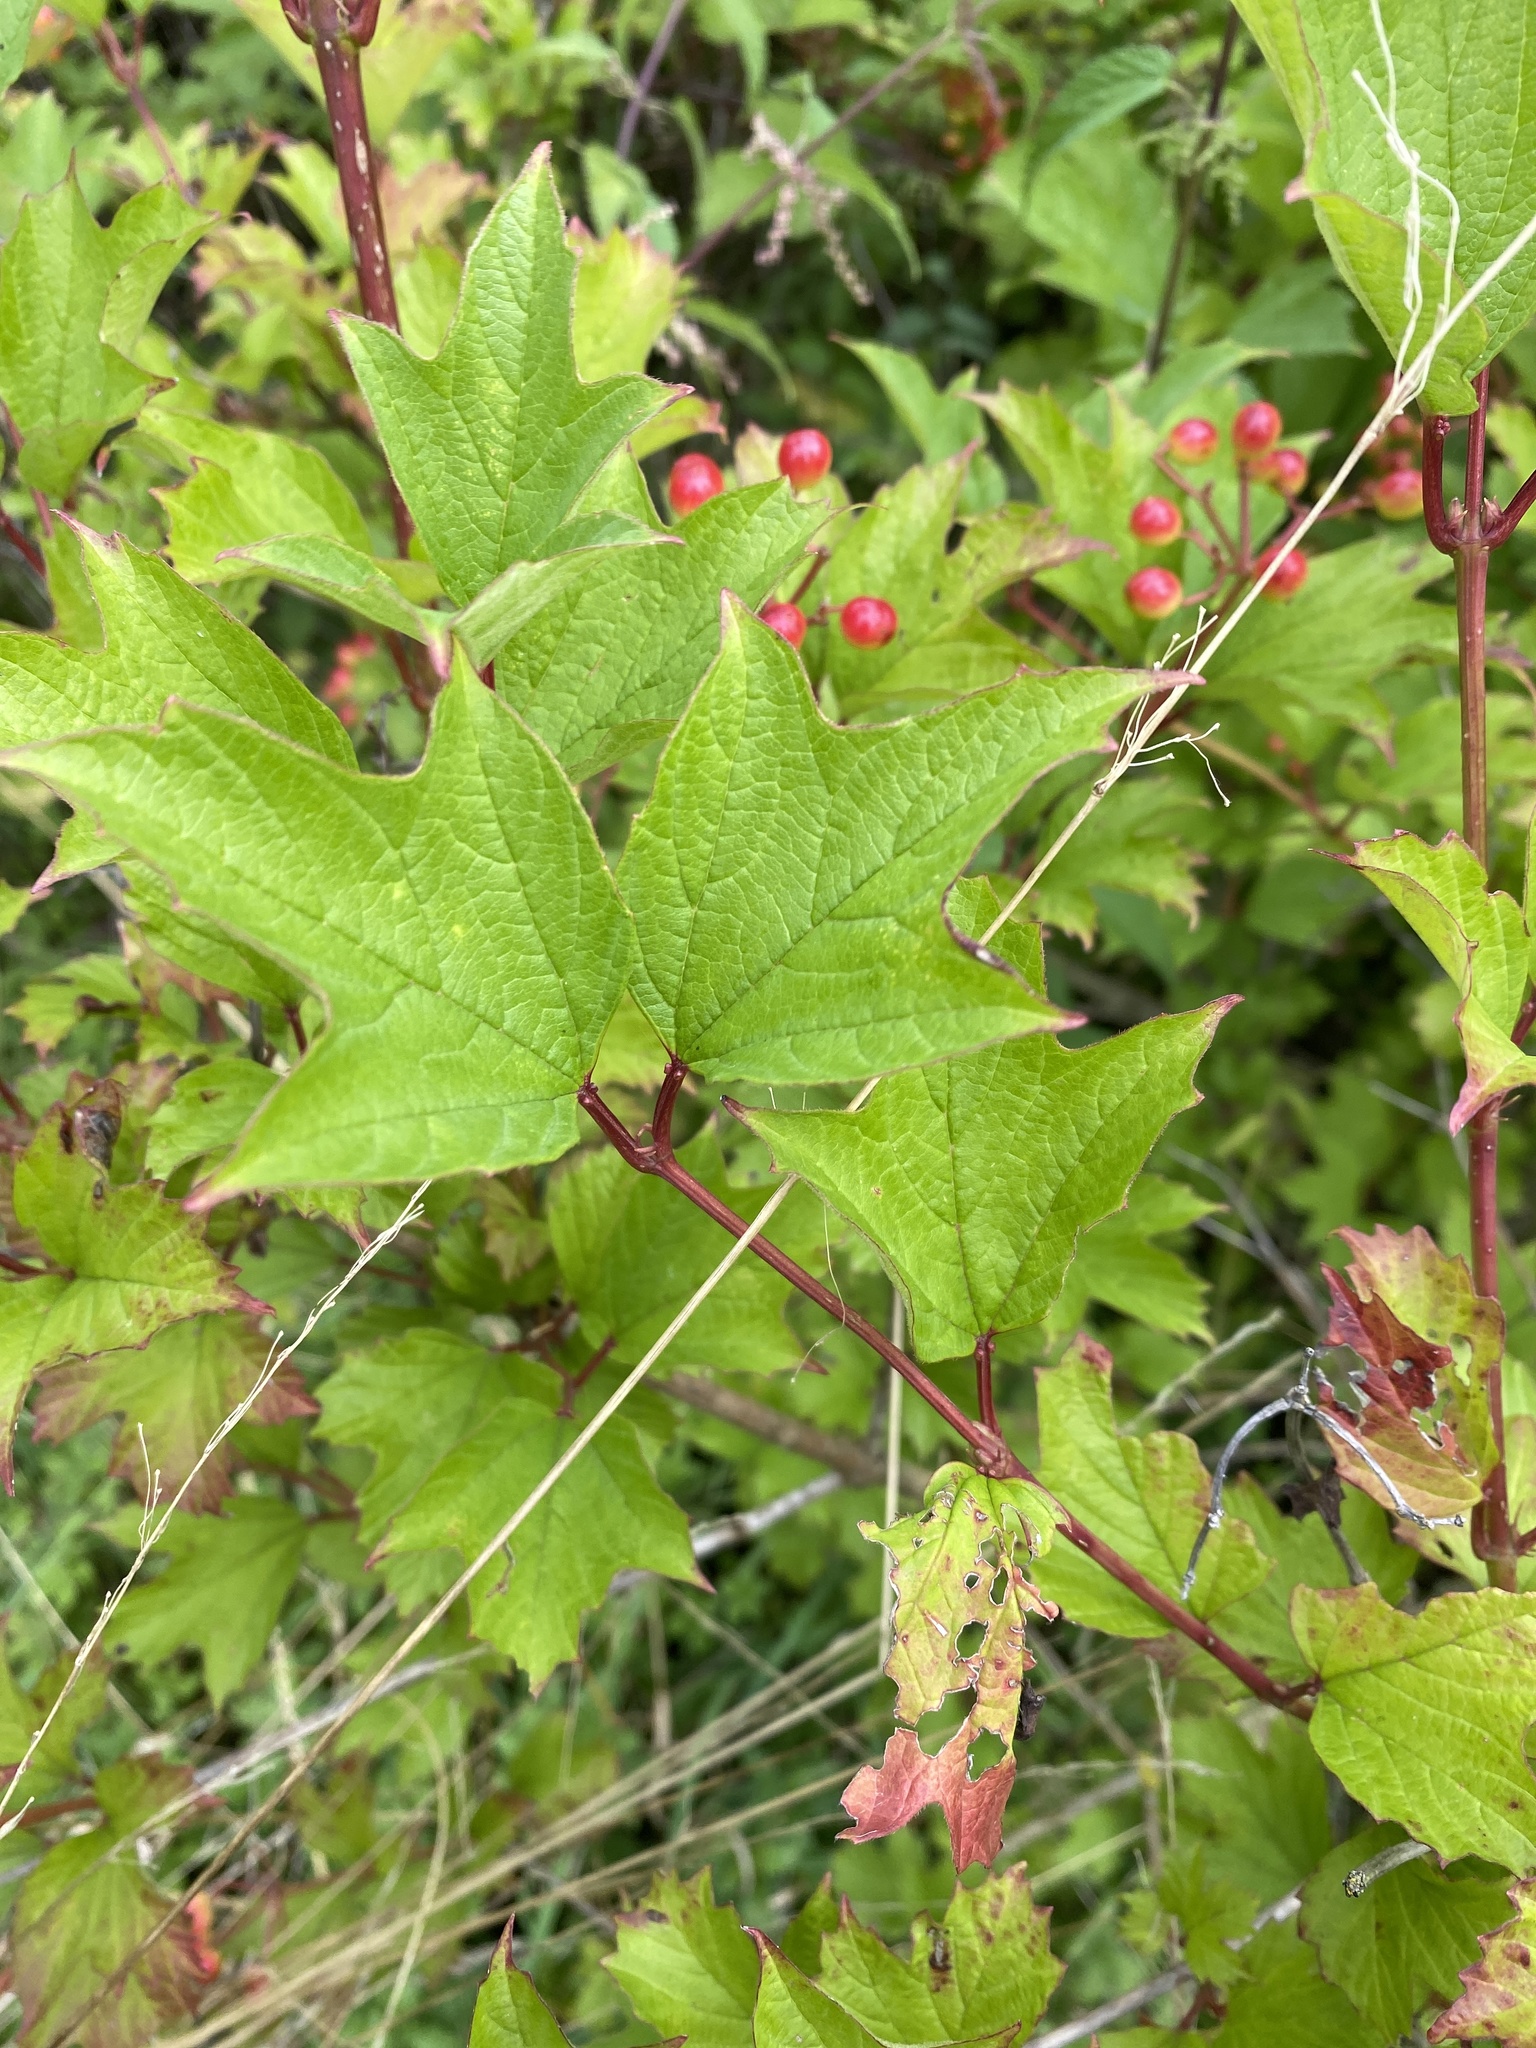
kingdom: Plantae
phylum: Tracheophyta
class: Magnoliopsida
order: Dipsacales
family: Viburnaceae
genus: Viburnum
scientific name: Viburnum opulus
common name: Guelder-rose
